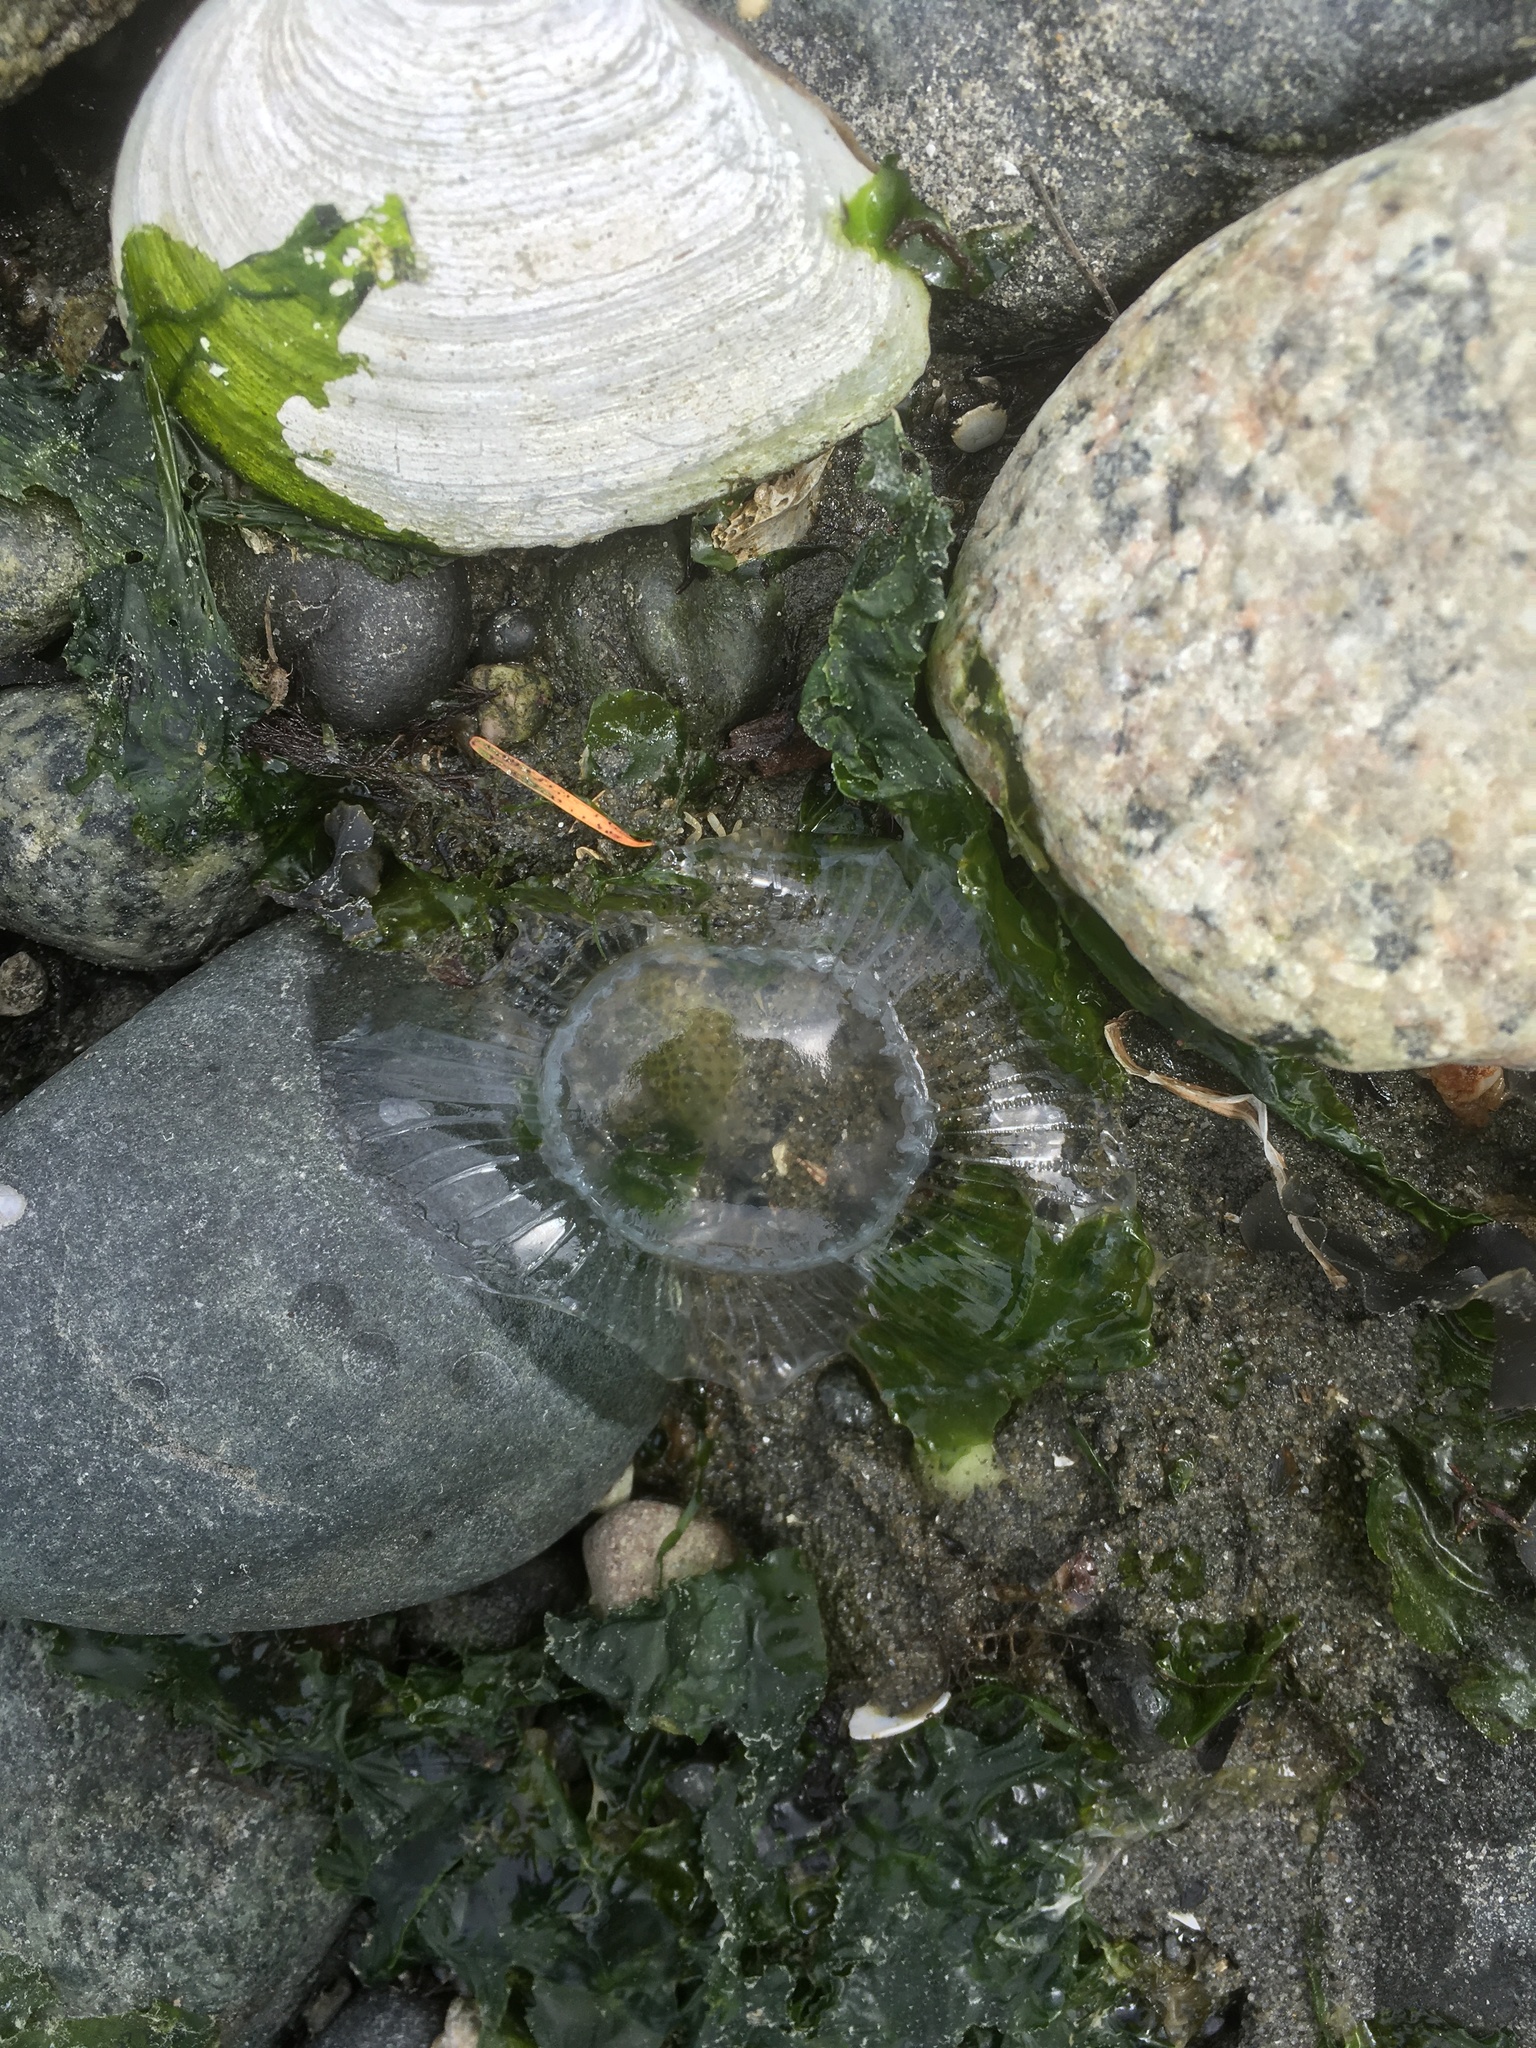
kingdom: Animalia
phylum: Cnidaria
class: Hydrozoa
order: Leptothecata
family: Aequoreidae
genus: Aequorea
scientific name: Aequorea victoria
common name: Water jellyfish
